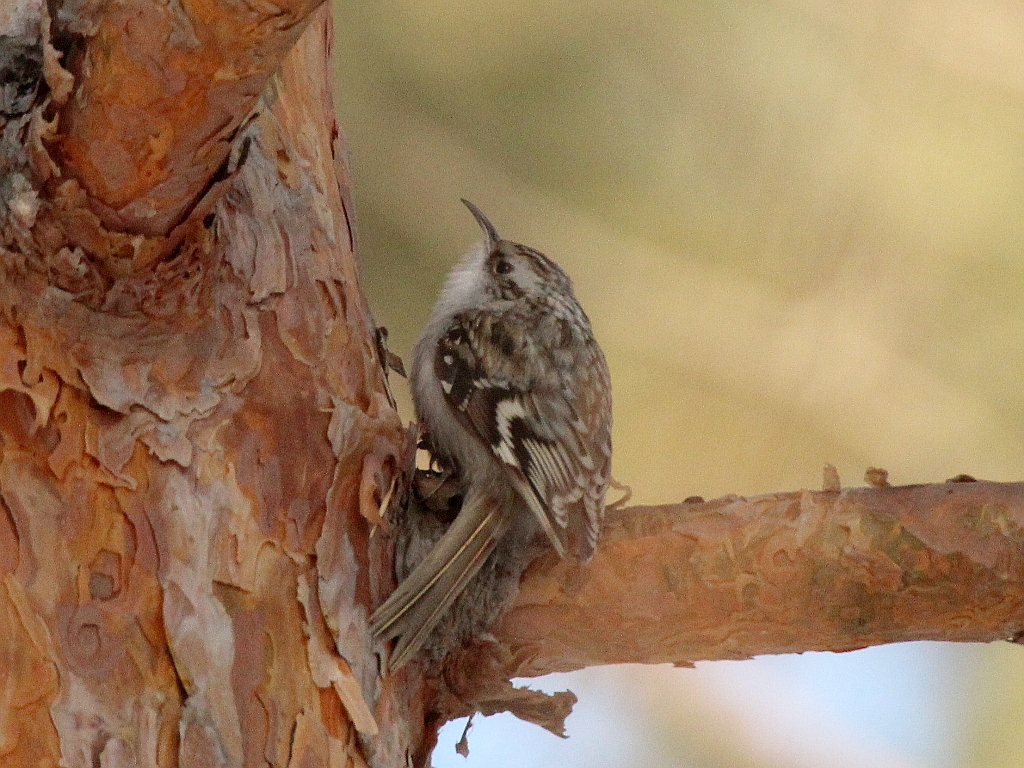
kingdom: Animalia
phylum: Chordata
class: Aves
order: Passeriformes
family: Certhiidae
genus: Certhia
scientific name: Certhia familiaris
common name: Eurasian treecreeper
